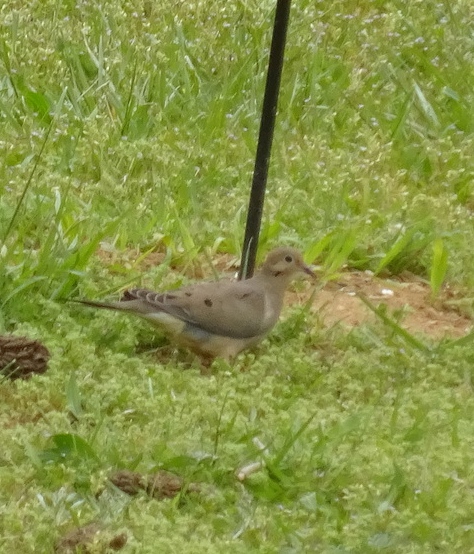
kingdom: Animalia
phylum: Chordata
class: Aves
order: Columbiformes
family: Columbidae
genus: Zenaida
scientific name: Zenaida macroura
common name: Mourning dove
